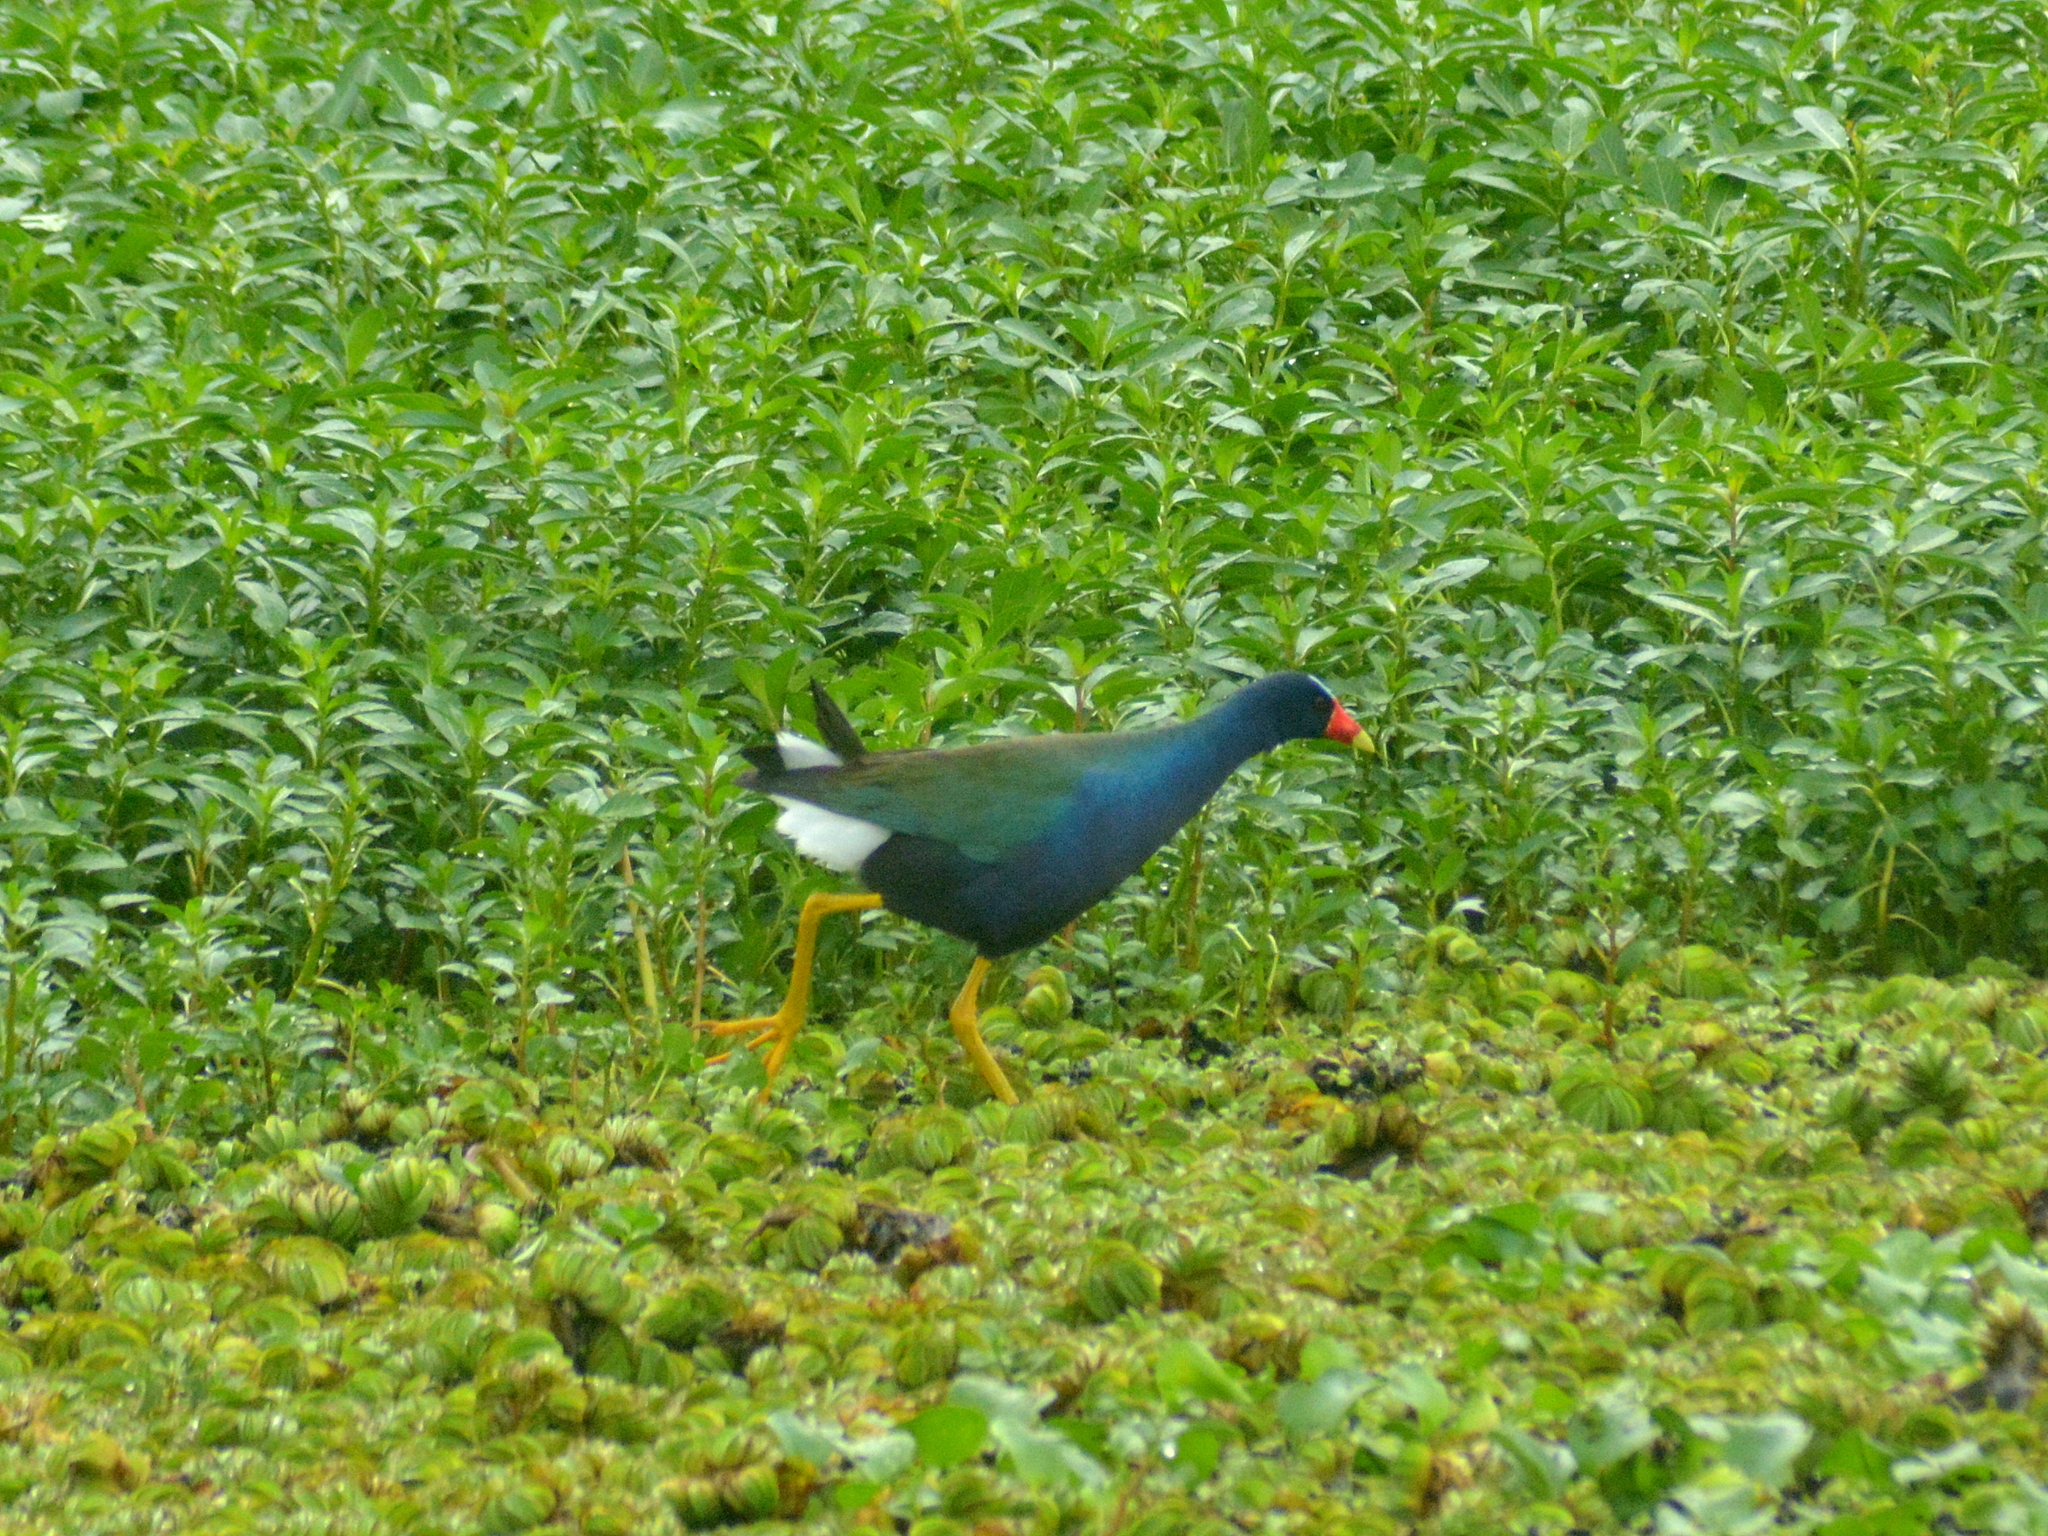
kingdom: Animalia
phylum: Chordata
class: Aves
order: Gruiformes
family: Rallidae
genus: Porphyrio
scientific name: Porphyrio martinica
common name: Purple gallinule
